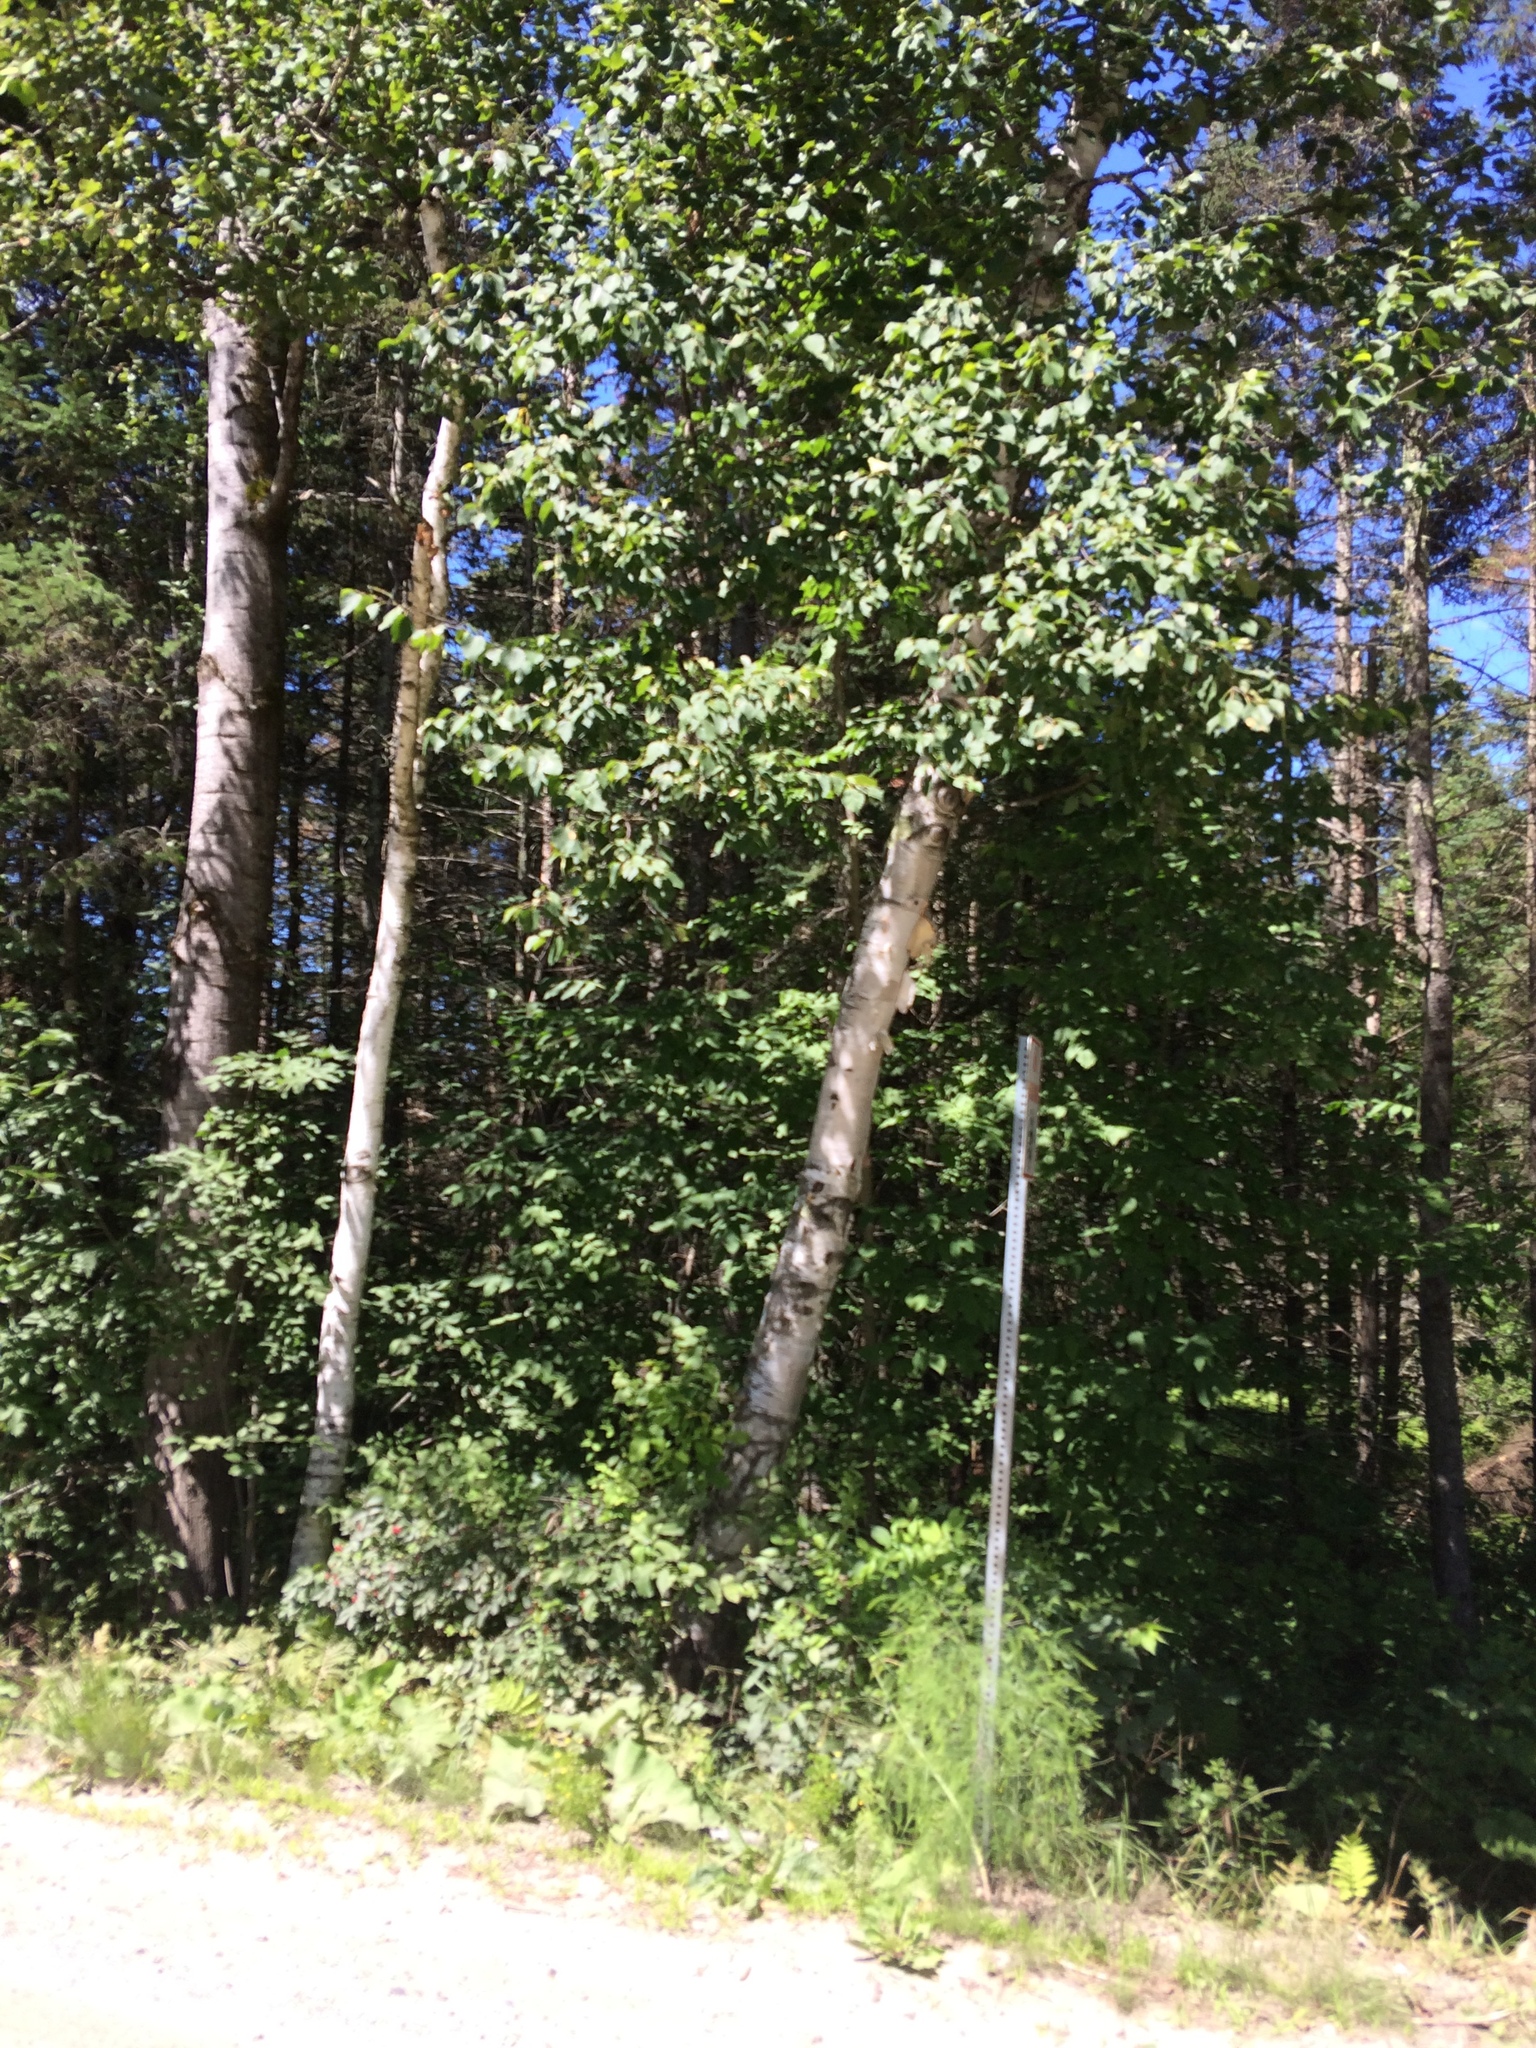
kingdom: Plantae
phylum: Tracheophyta
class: Magnoliopsida
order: Fagales
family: Betulaceae
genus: Betula
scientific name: Betula papyrifera
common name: Paper birch
